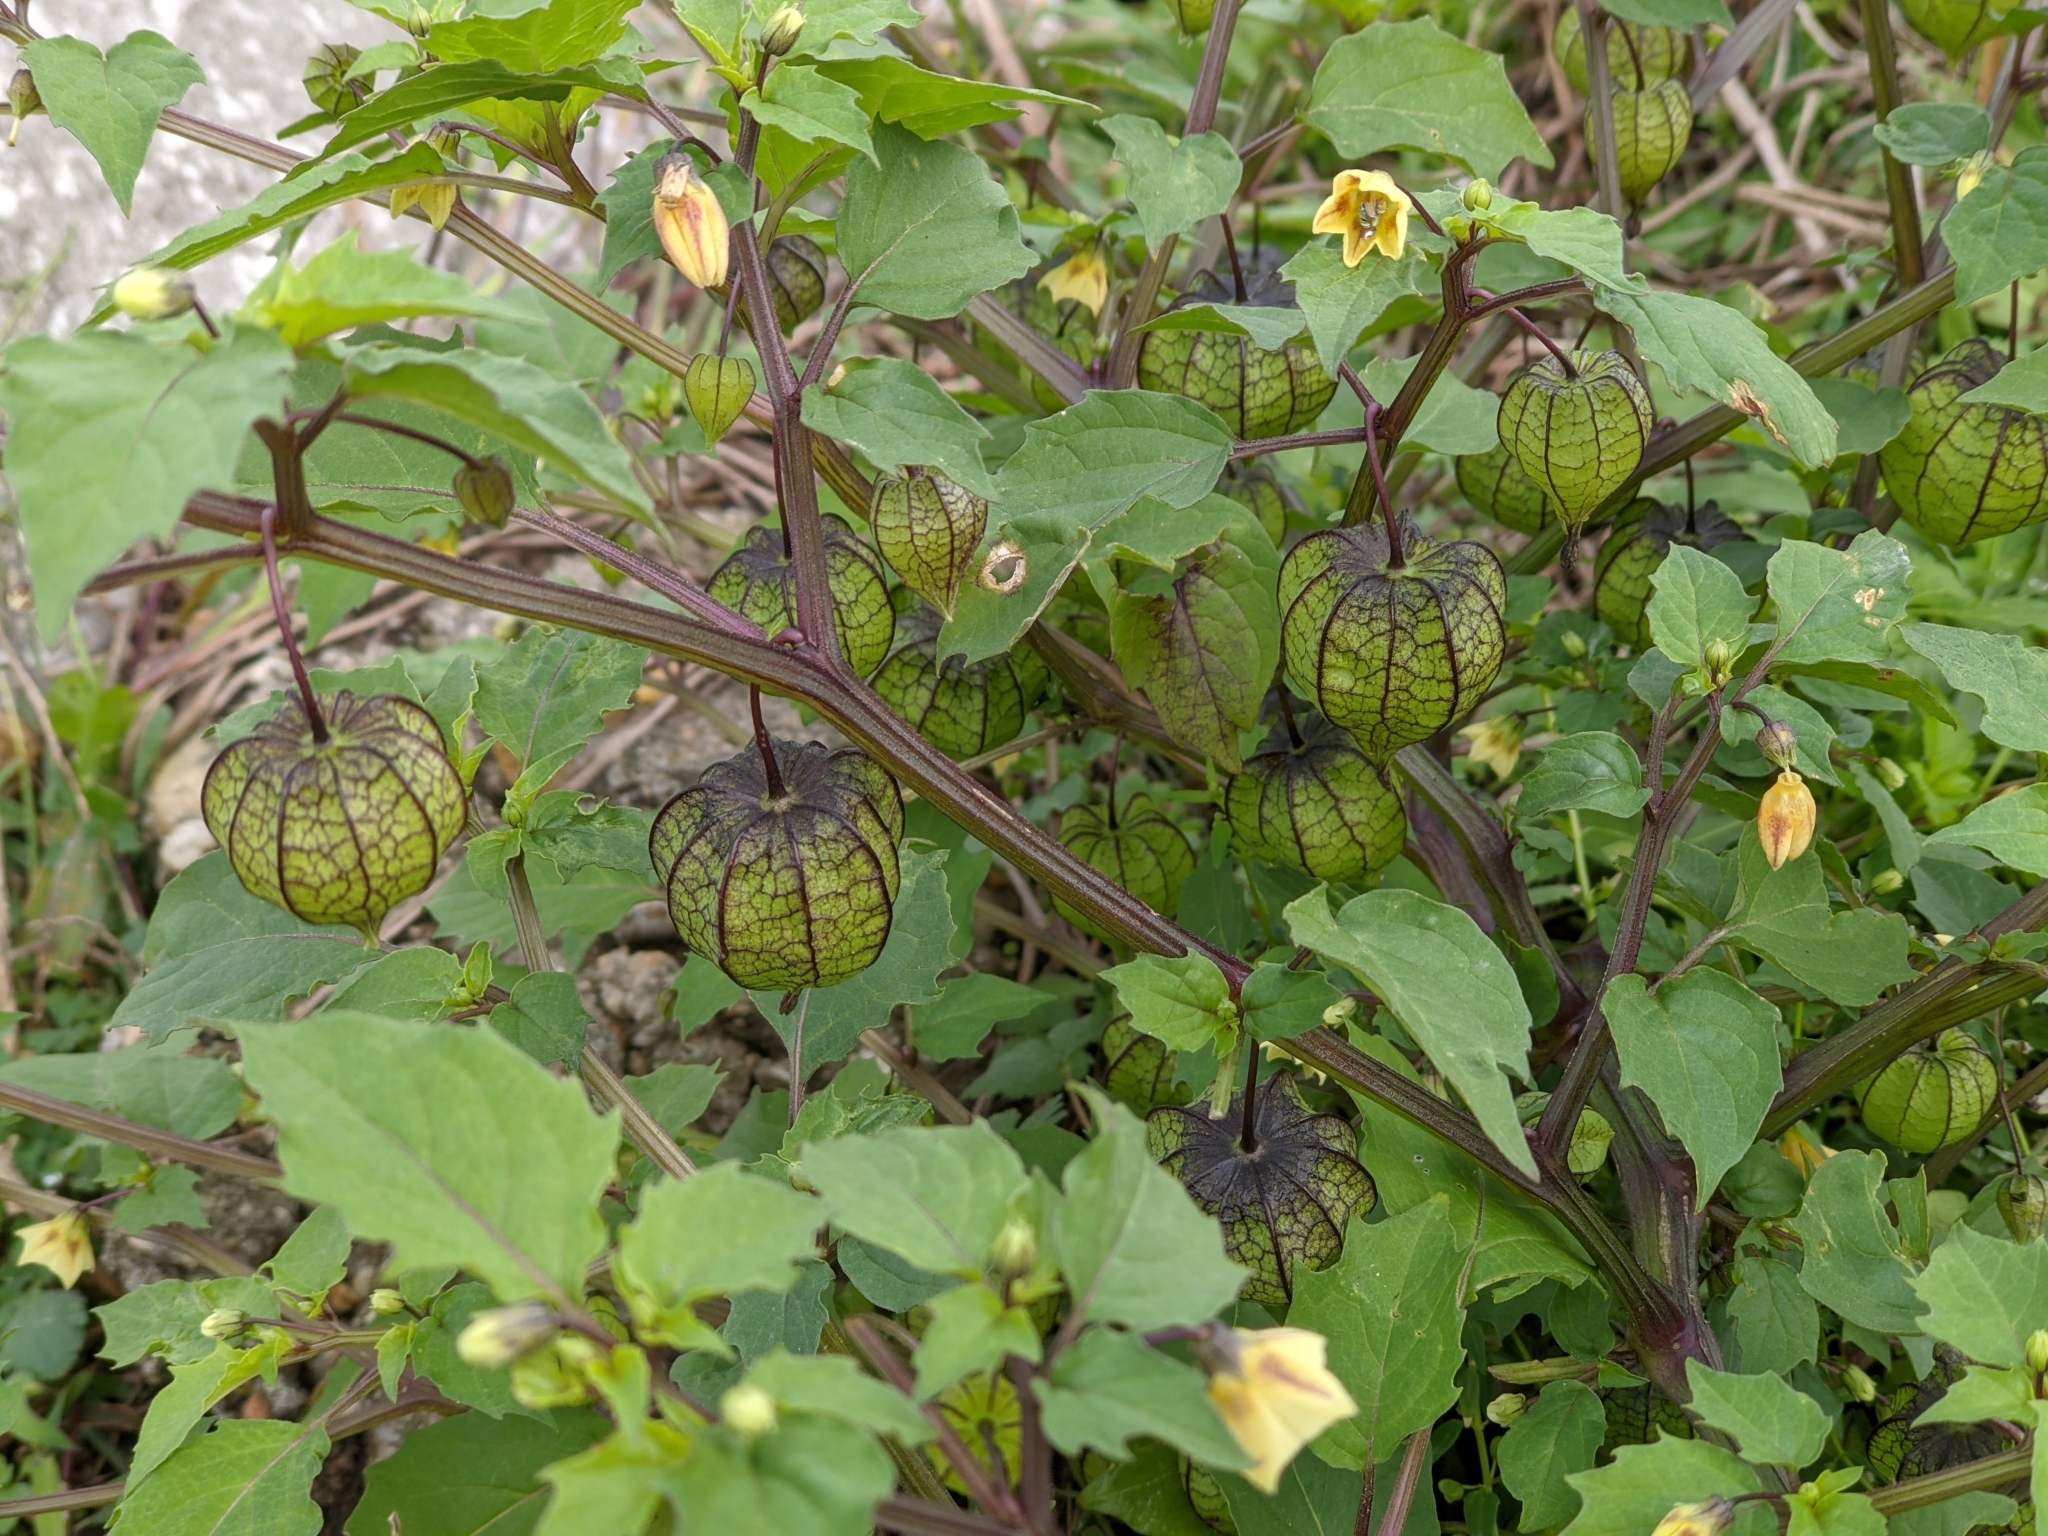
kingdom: Plantae
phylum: Tracheophyta
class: Magnoliopsida
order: Solanales
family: Solanaceae
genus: Physalis
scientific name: Physalis angulata
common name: Angular winter-cherry
